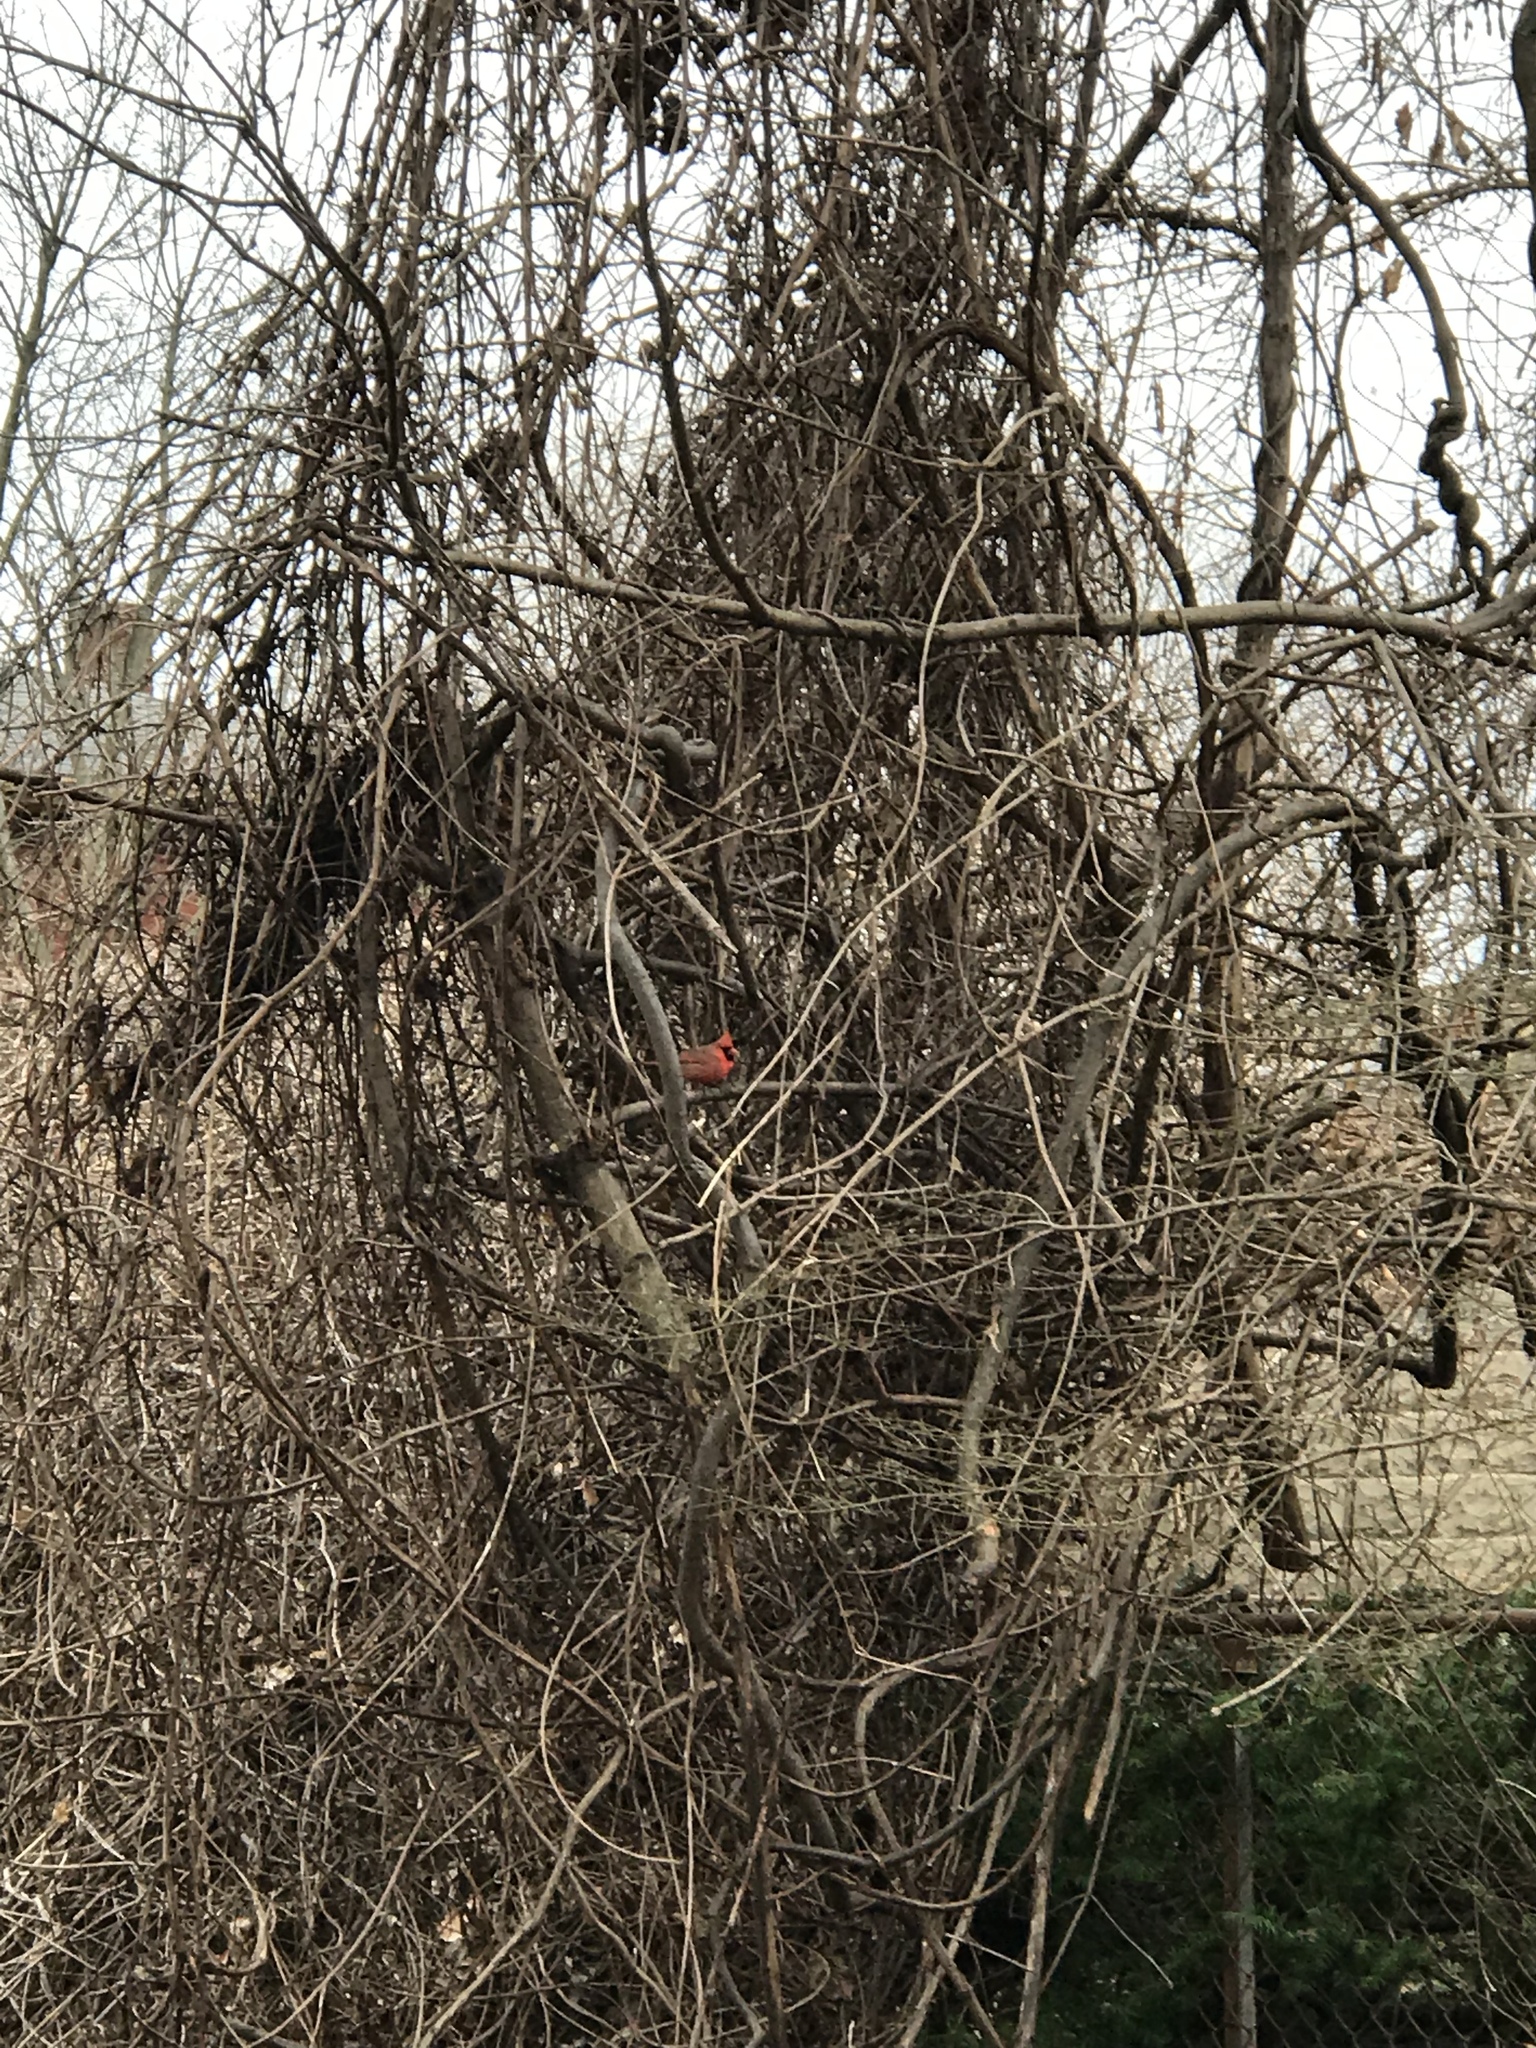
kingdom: Animalia
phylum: Chordata
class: Aves
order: Passeriformes
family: Cardinalidae
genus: Cardinalis
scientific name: Cardinalis cardinalis
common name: Northern cardinal
